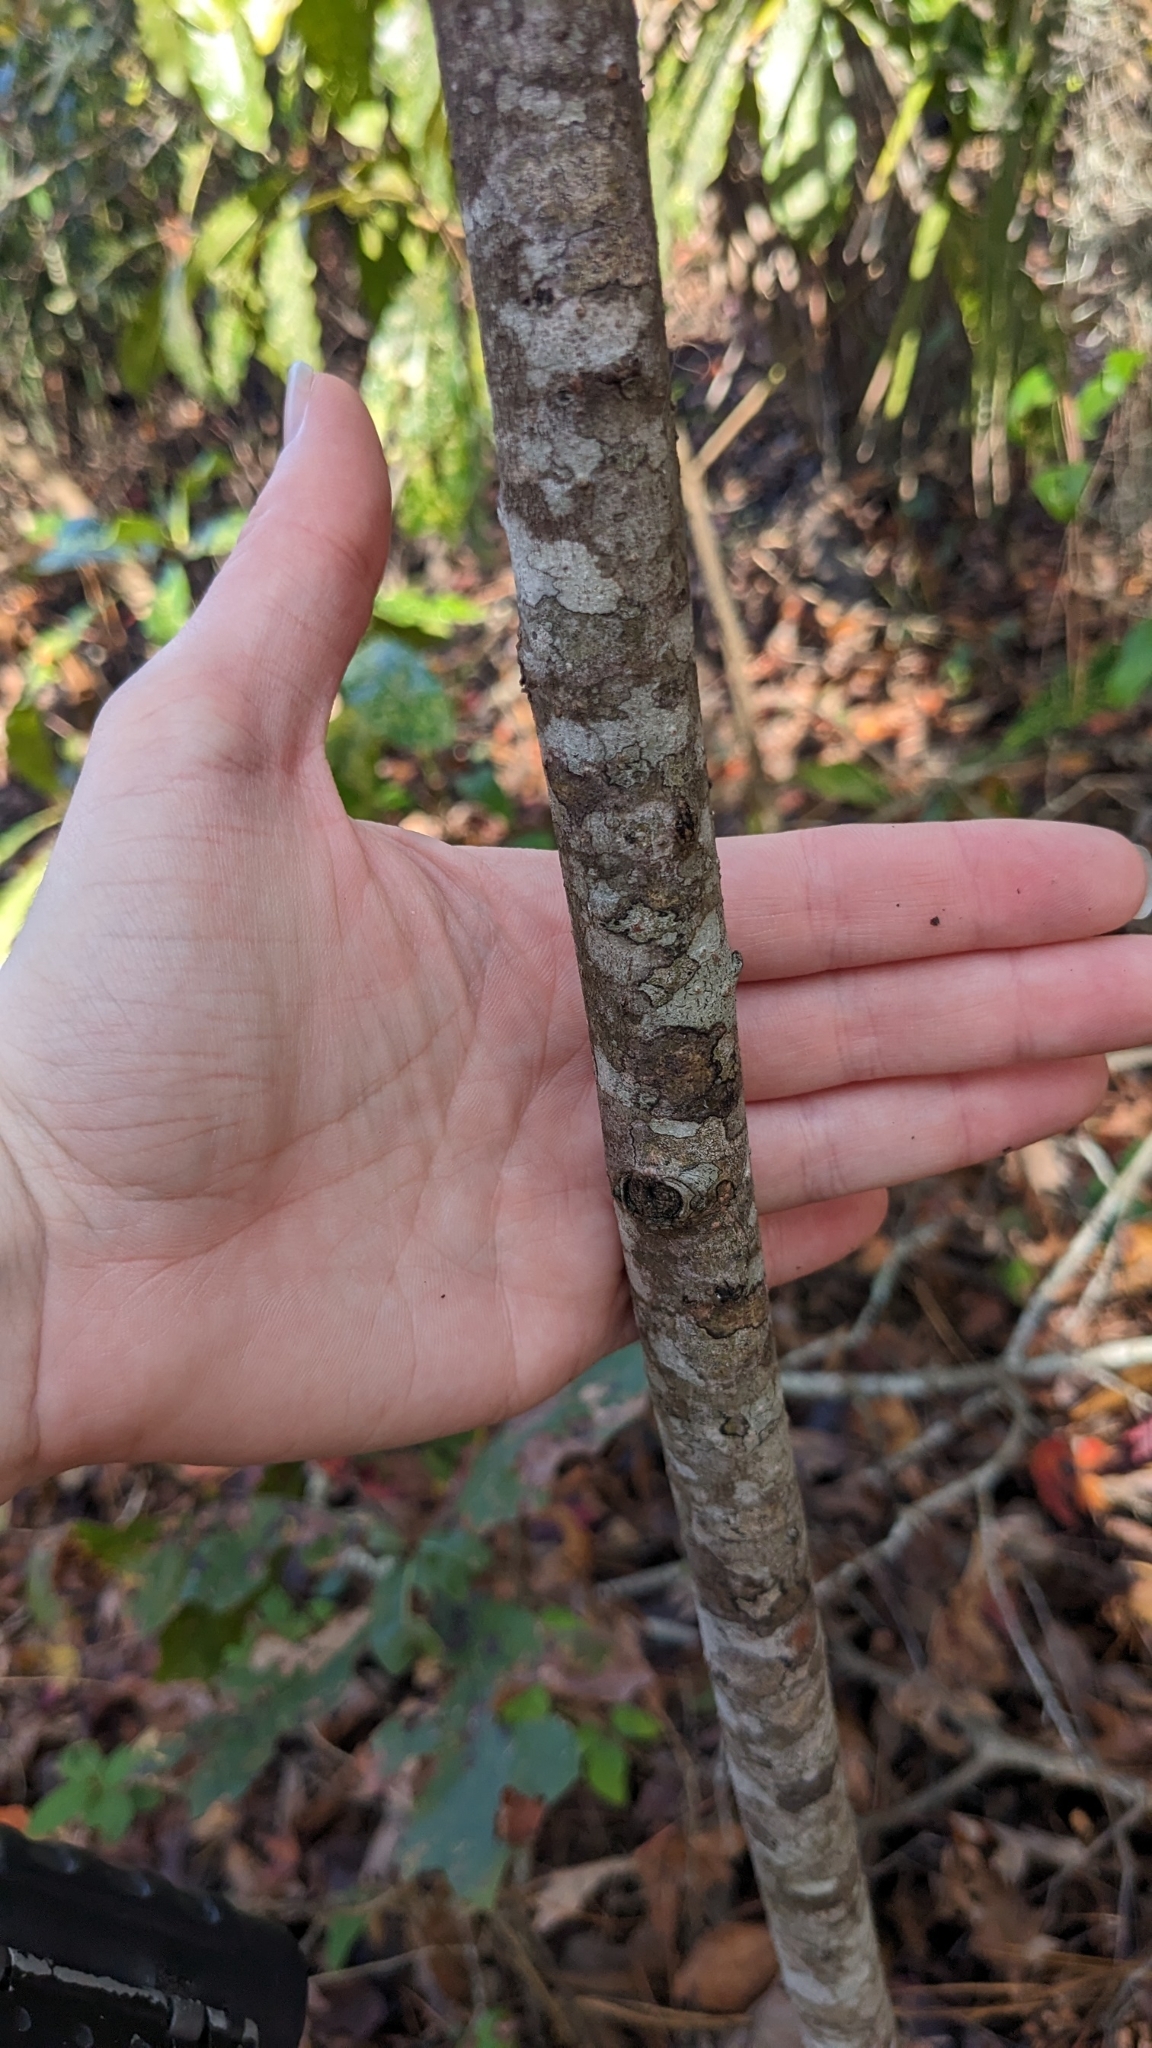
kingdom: Plantae
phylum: Tracheophyta
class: Magnoliopsida
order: Ericales
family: Ebenaceae
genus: Diospyros
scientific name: Diospyros virginiana
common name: Persimmon
